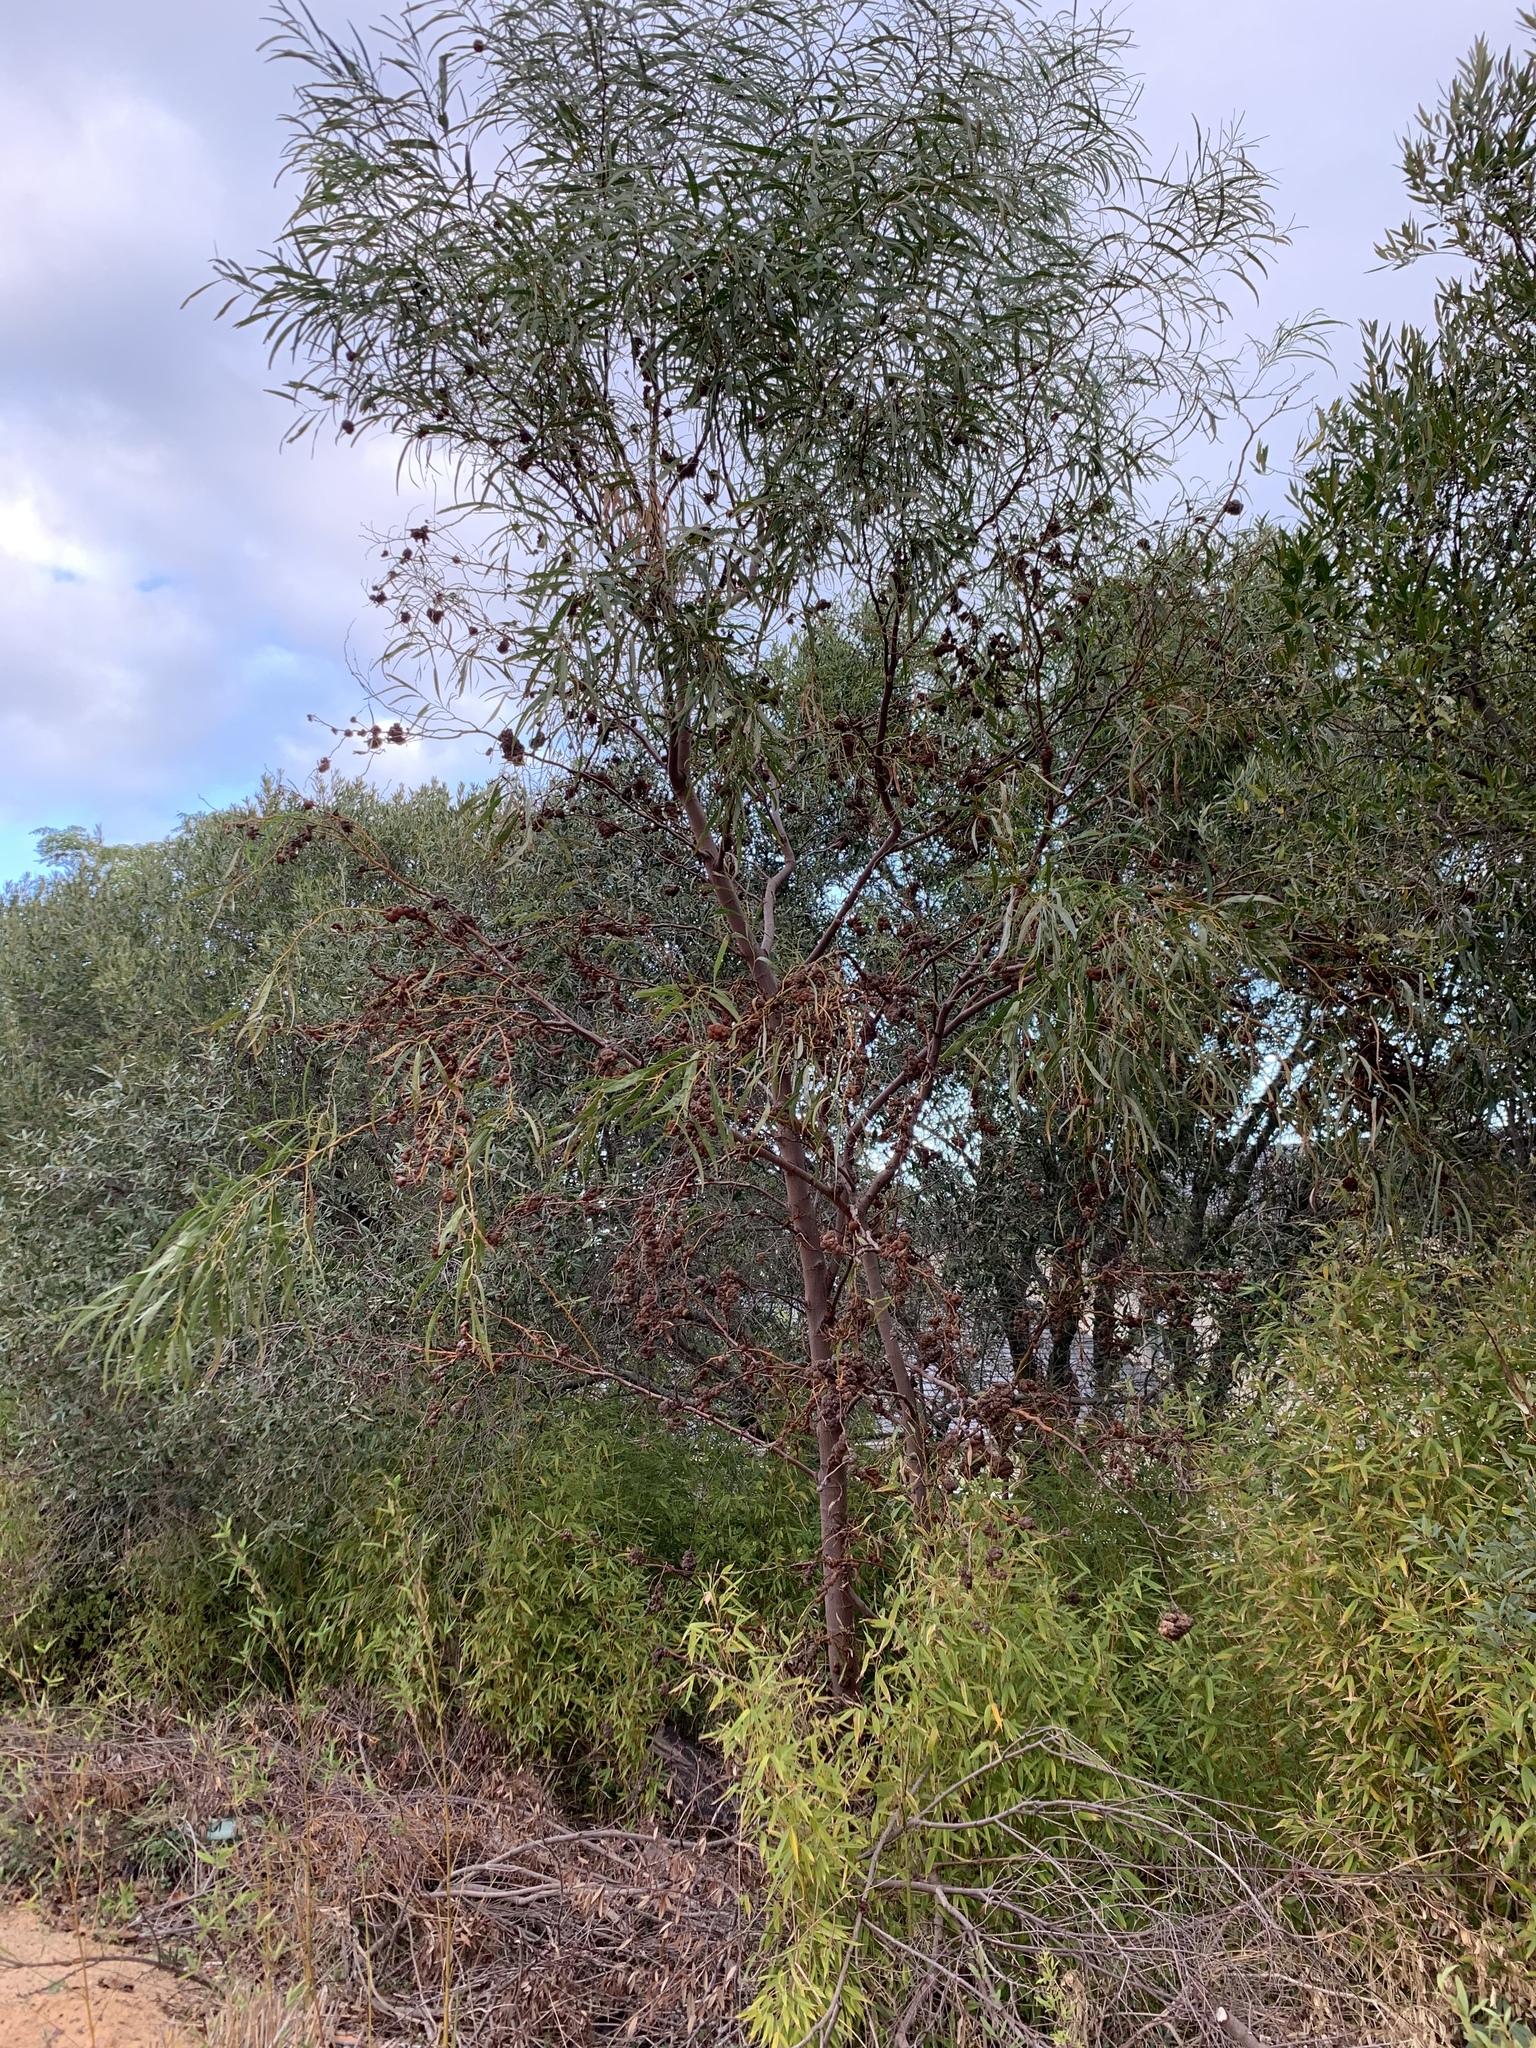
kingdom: Plantae
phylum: Tracheophyta
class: Magnoliopsida
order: Fabales
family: Fabaceae
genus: Acacia
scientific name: Acacia saligna
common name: Orange wattle
